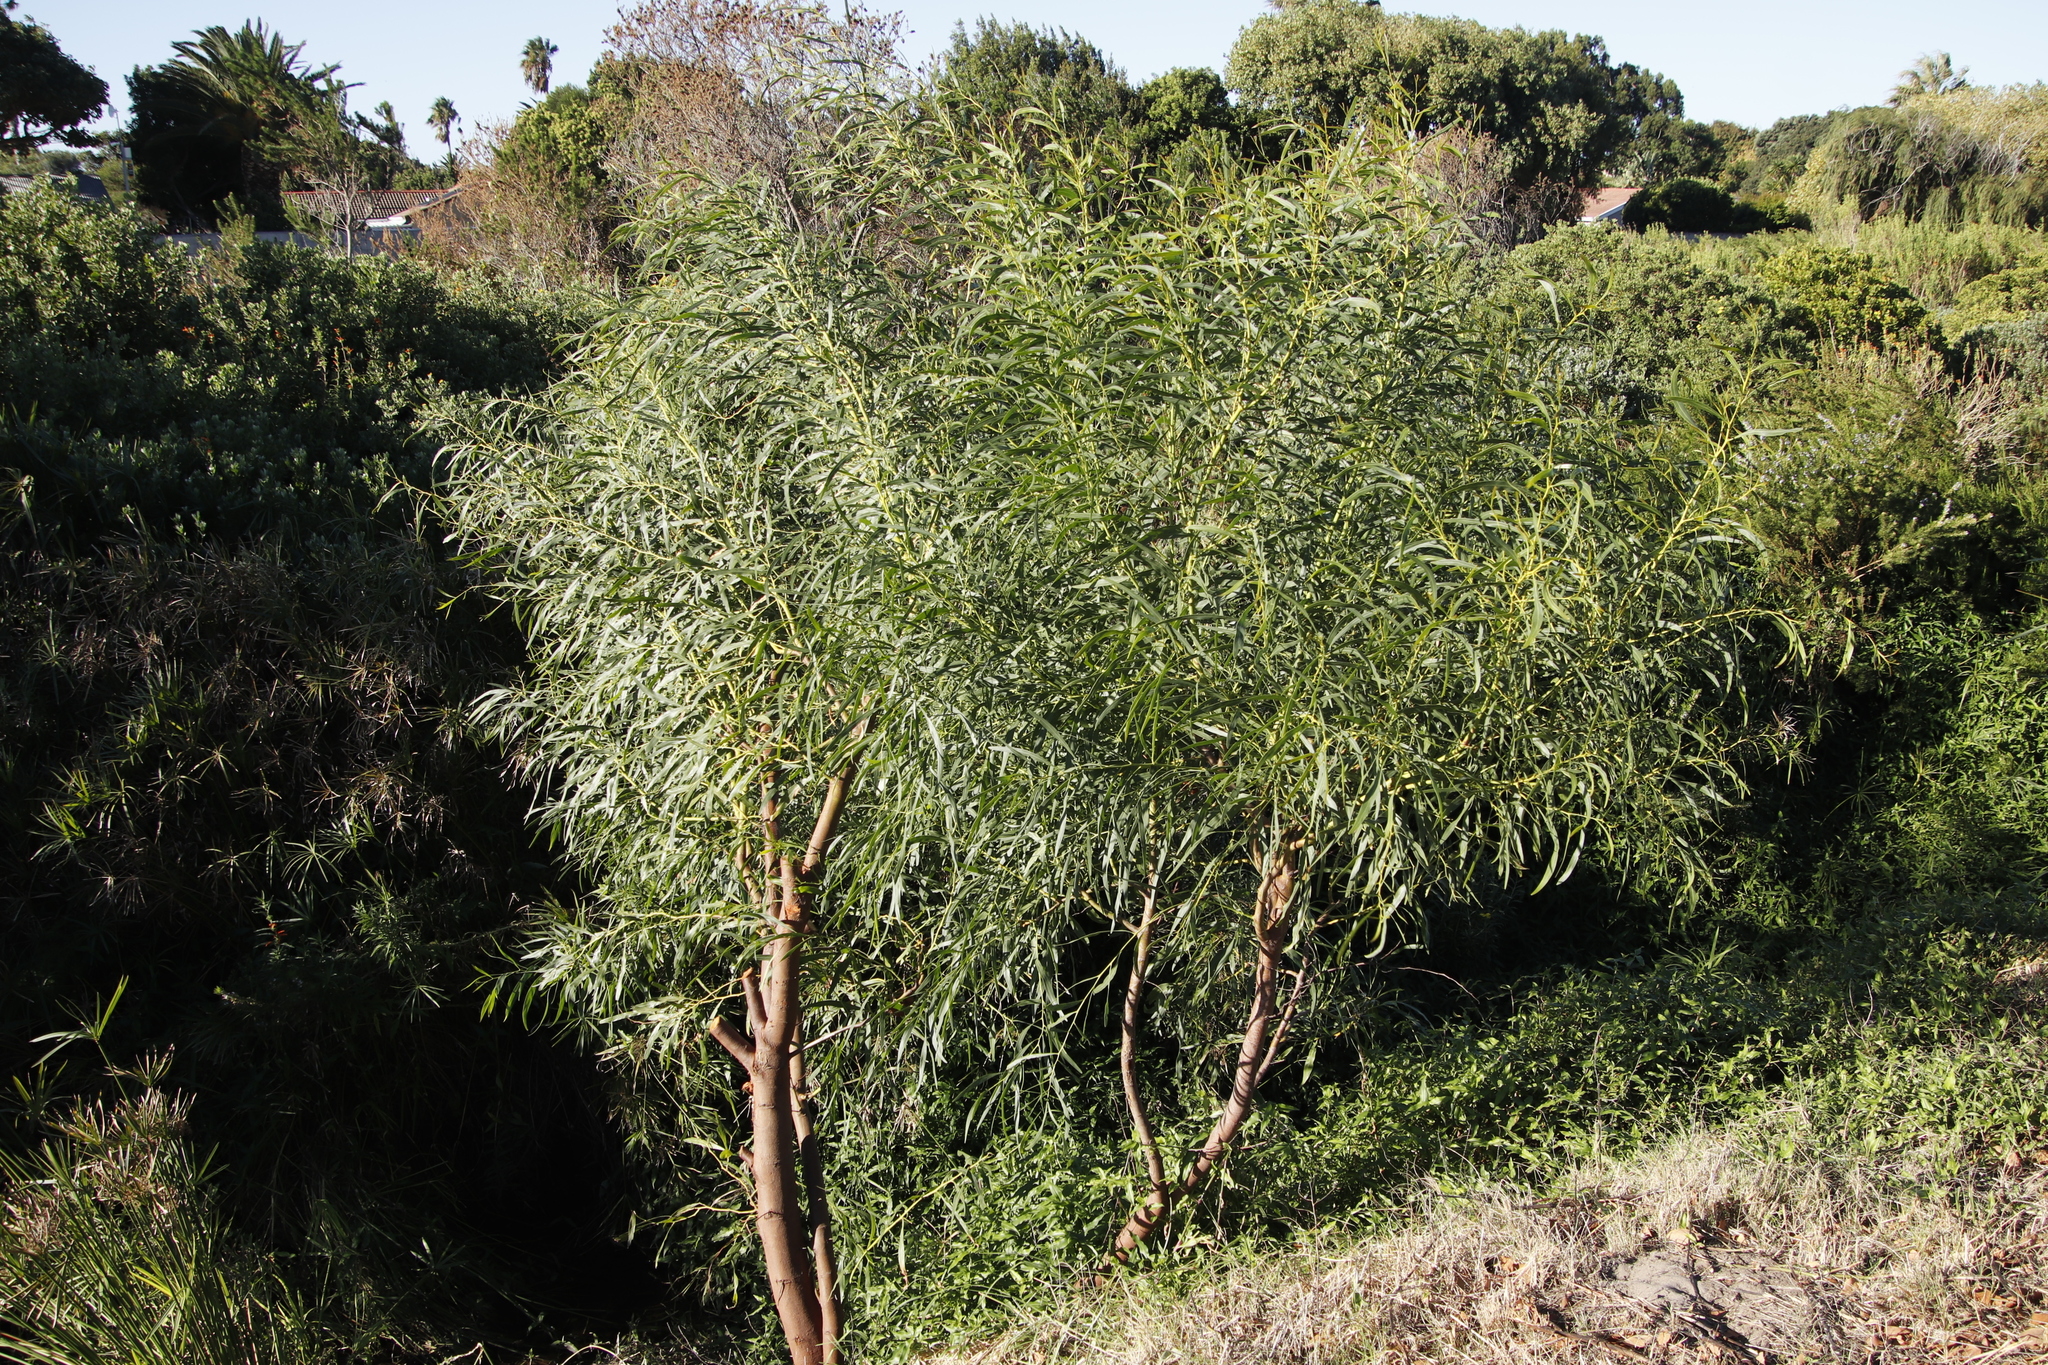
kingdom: Plantae
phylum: Tracheophyta
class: Magnoliopsida
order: Fabales
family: Fabaceae
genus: Acacia
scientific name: Acacia saligna
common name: Orange wattle
